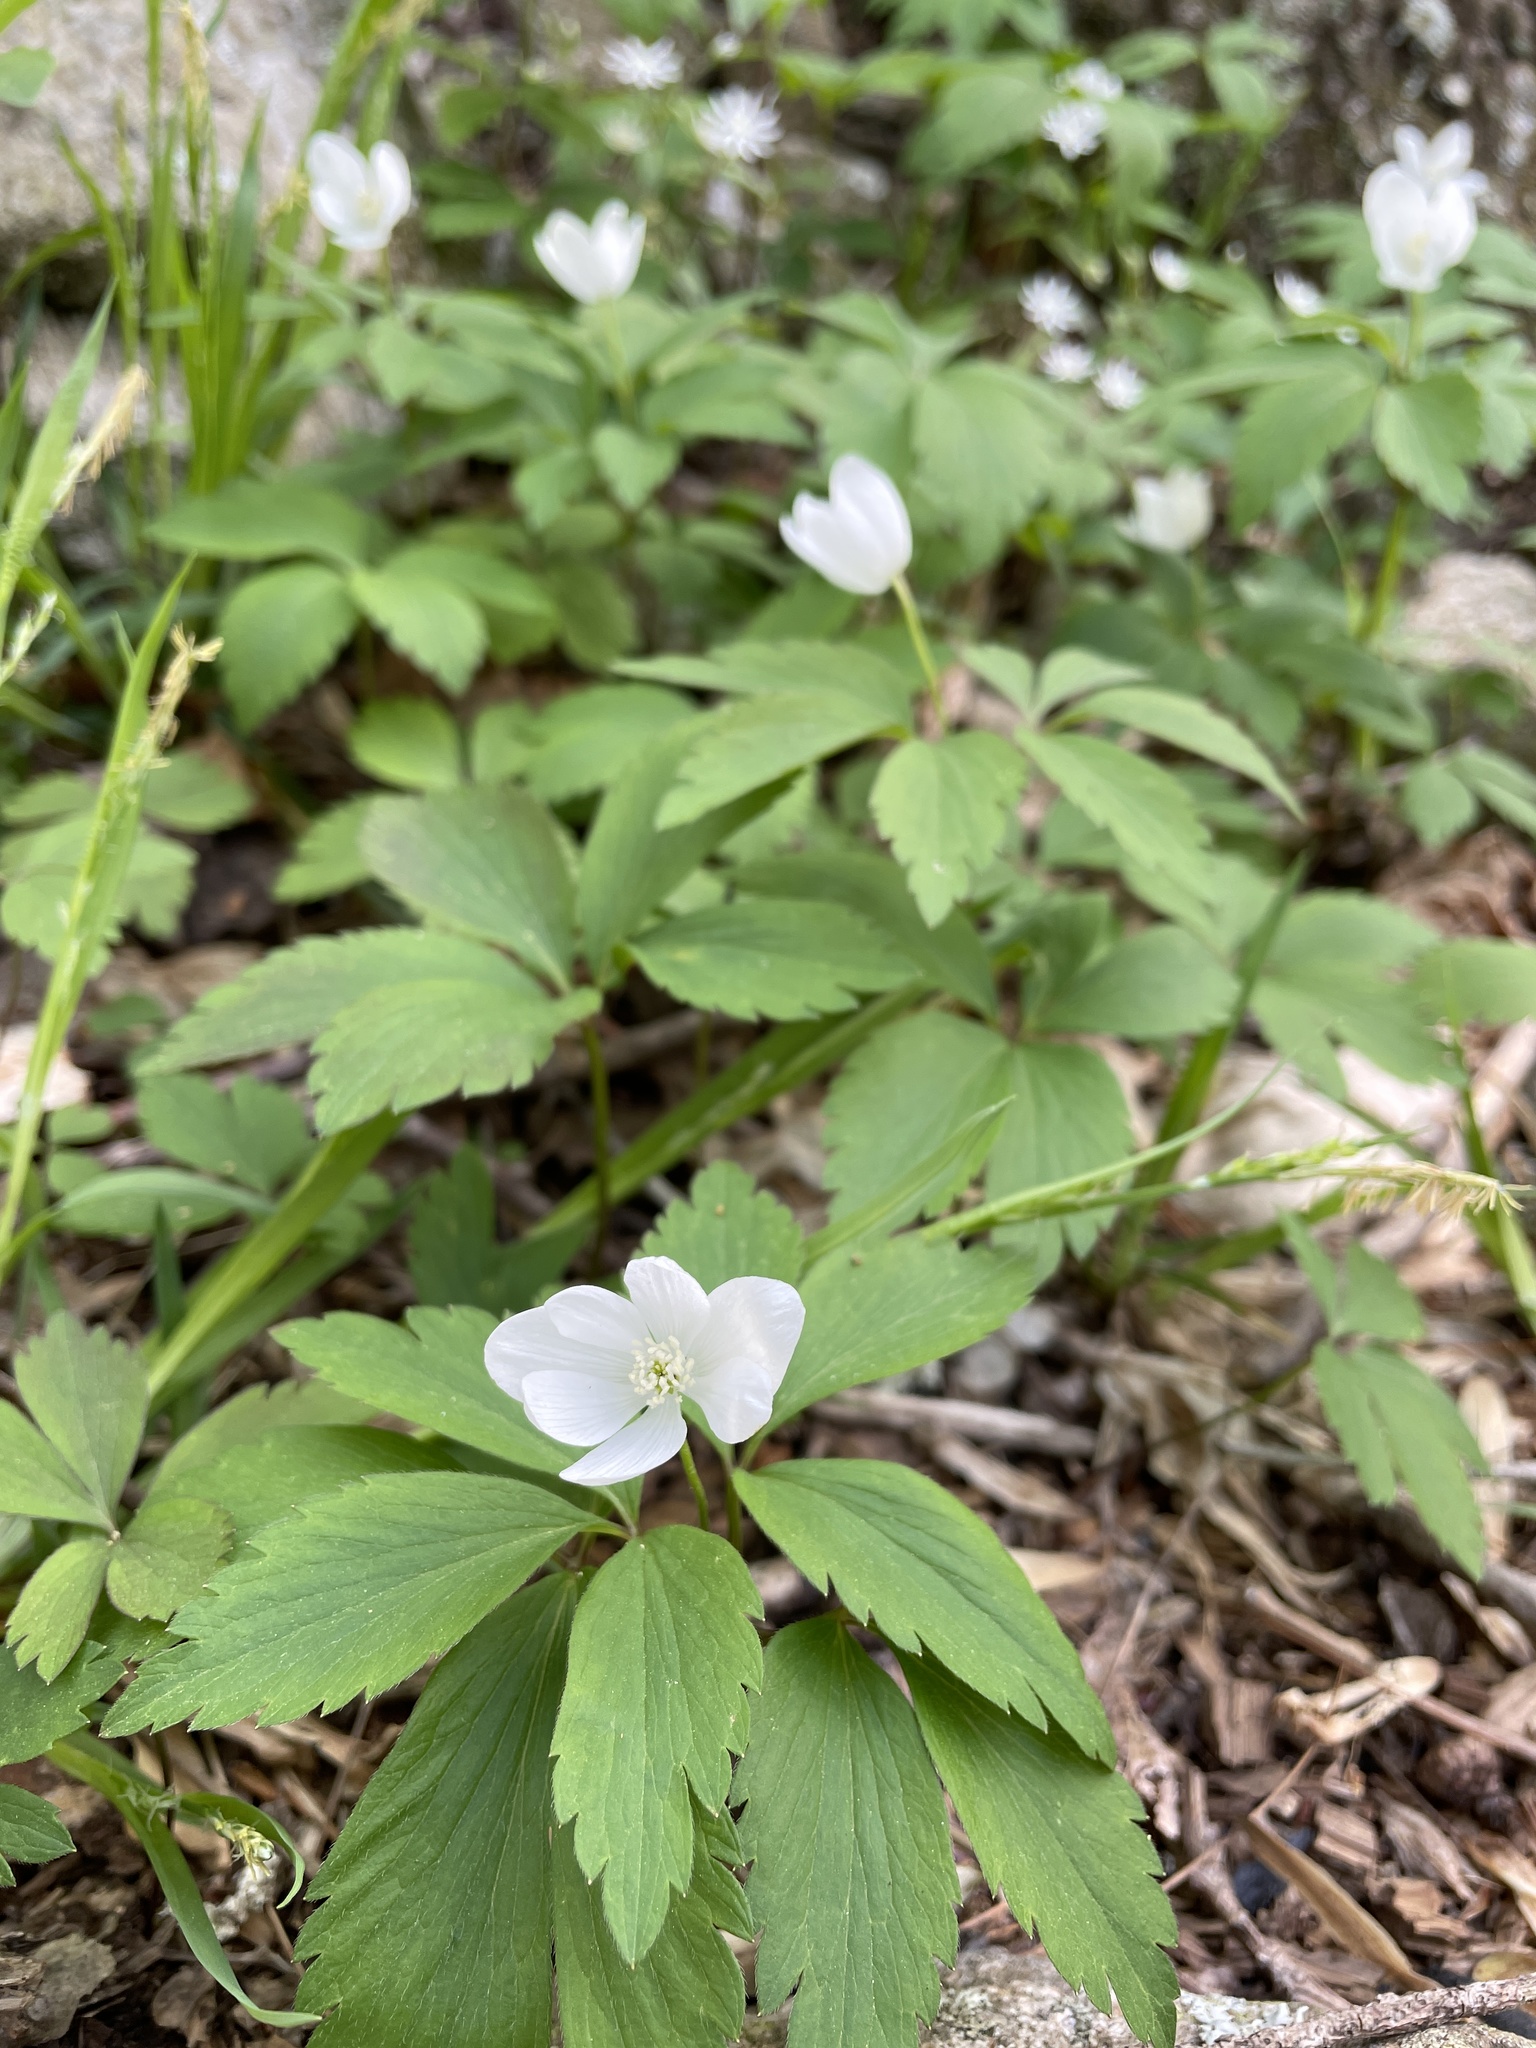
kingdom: Plantae
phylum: Tracheophyta
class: Magnoliopsida
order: Ranunculales
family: Ranunculaceae
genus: Anemone
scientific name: Anemone quinquefolia
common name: Wood anemone
